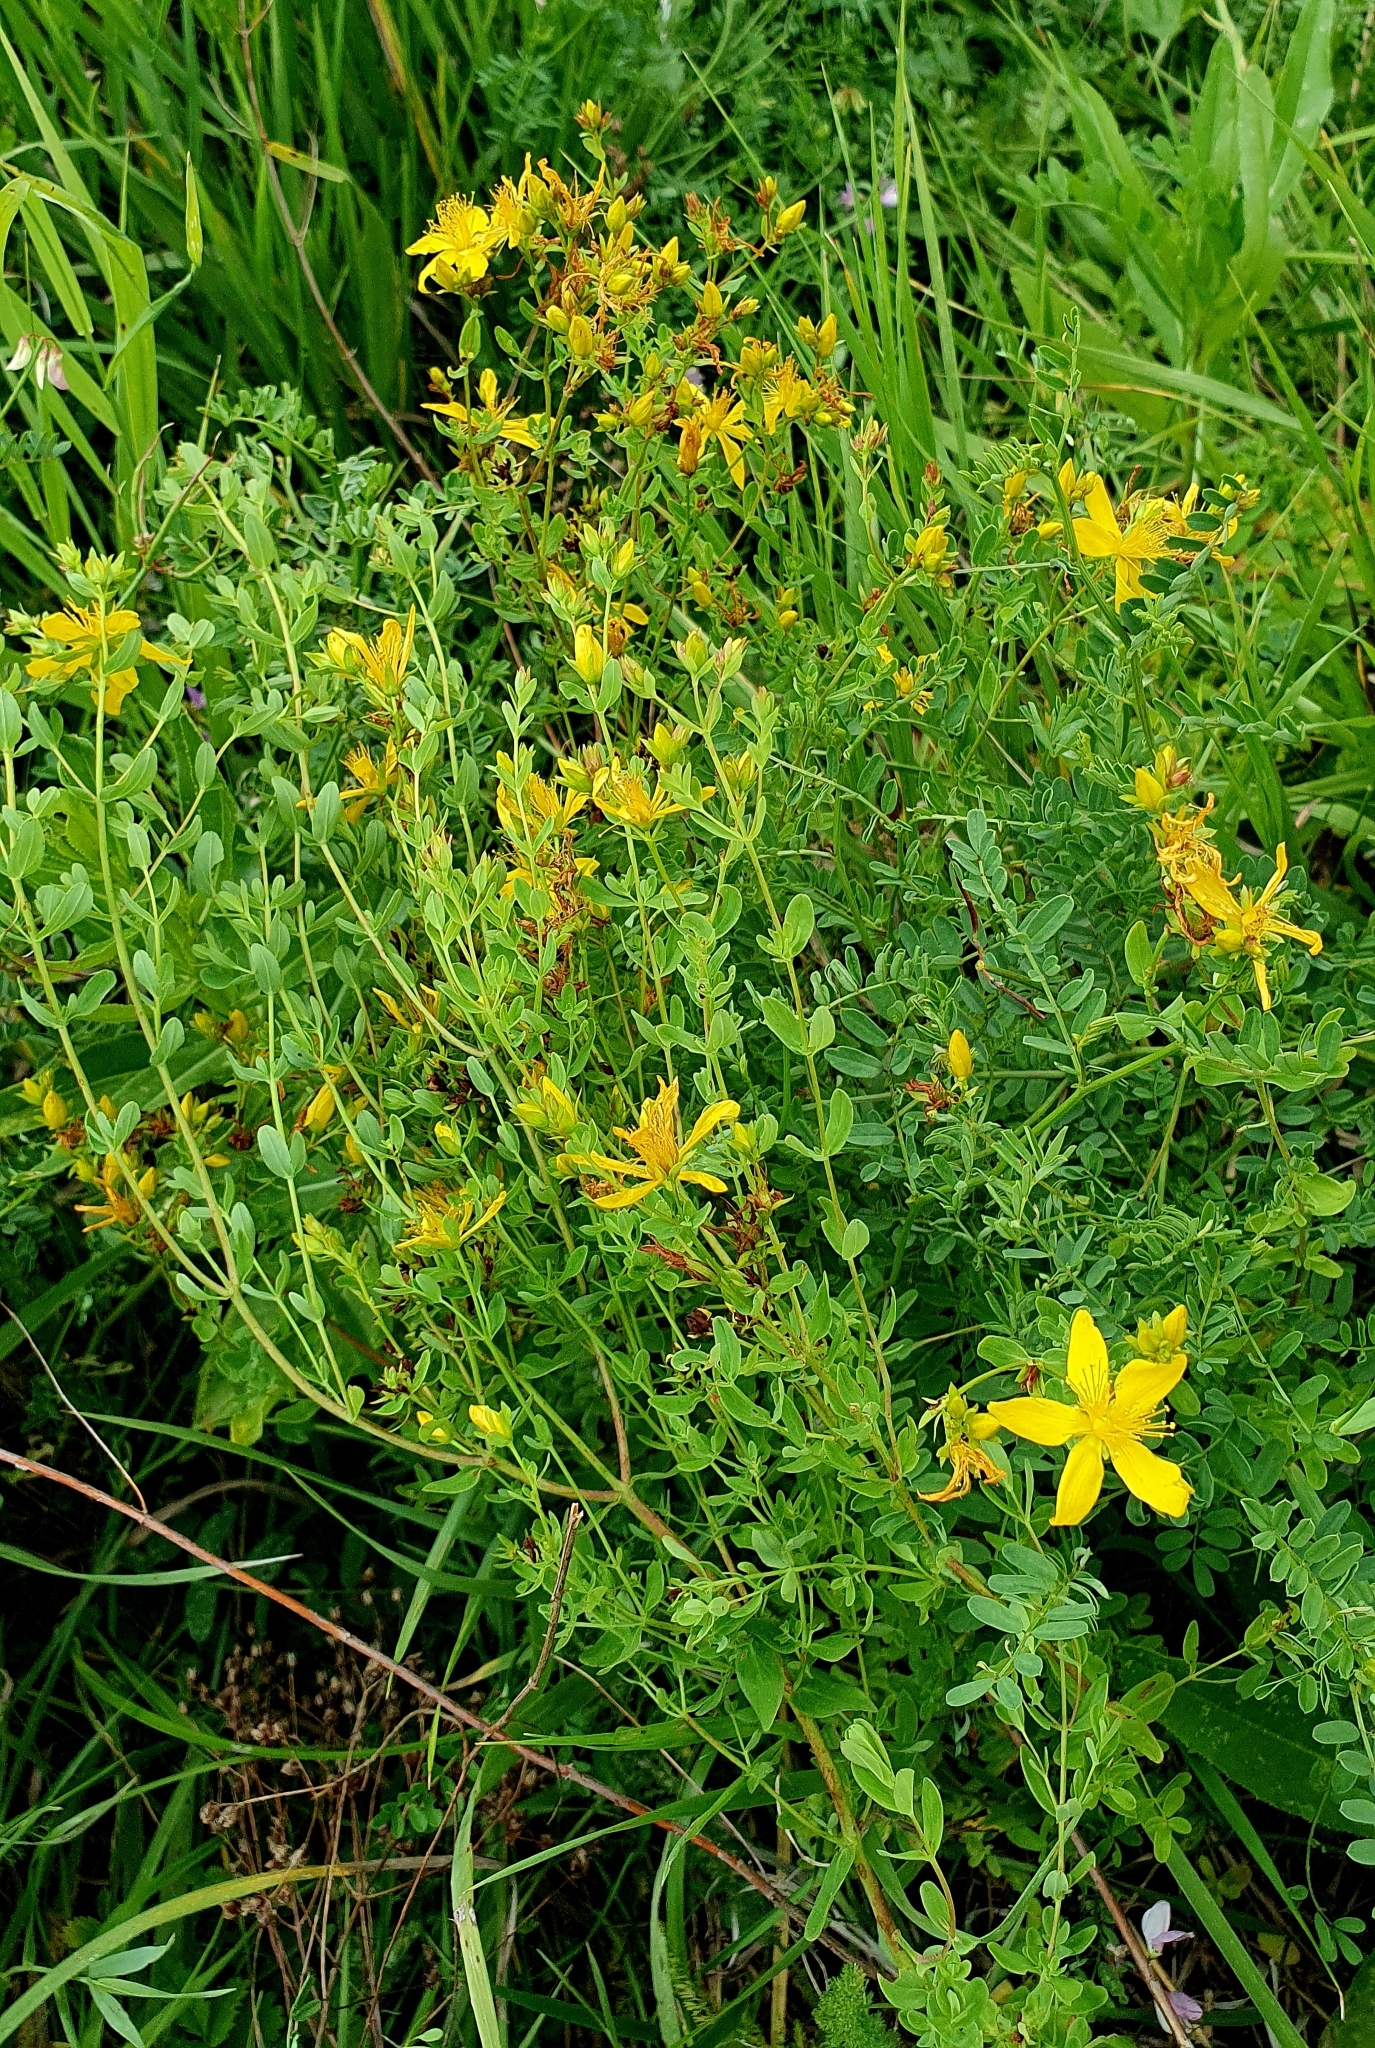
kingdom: Plantae
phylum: Tracheophyta
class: Magnoliopsida
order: Malpighiales
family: Hypericaceae
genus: Hypericum
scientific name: Hypericum perforatum
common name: Common st. johnswort
